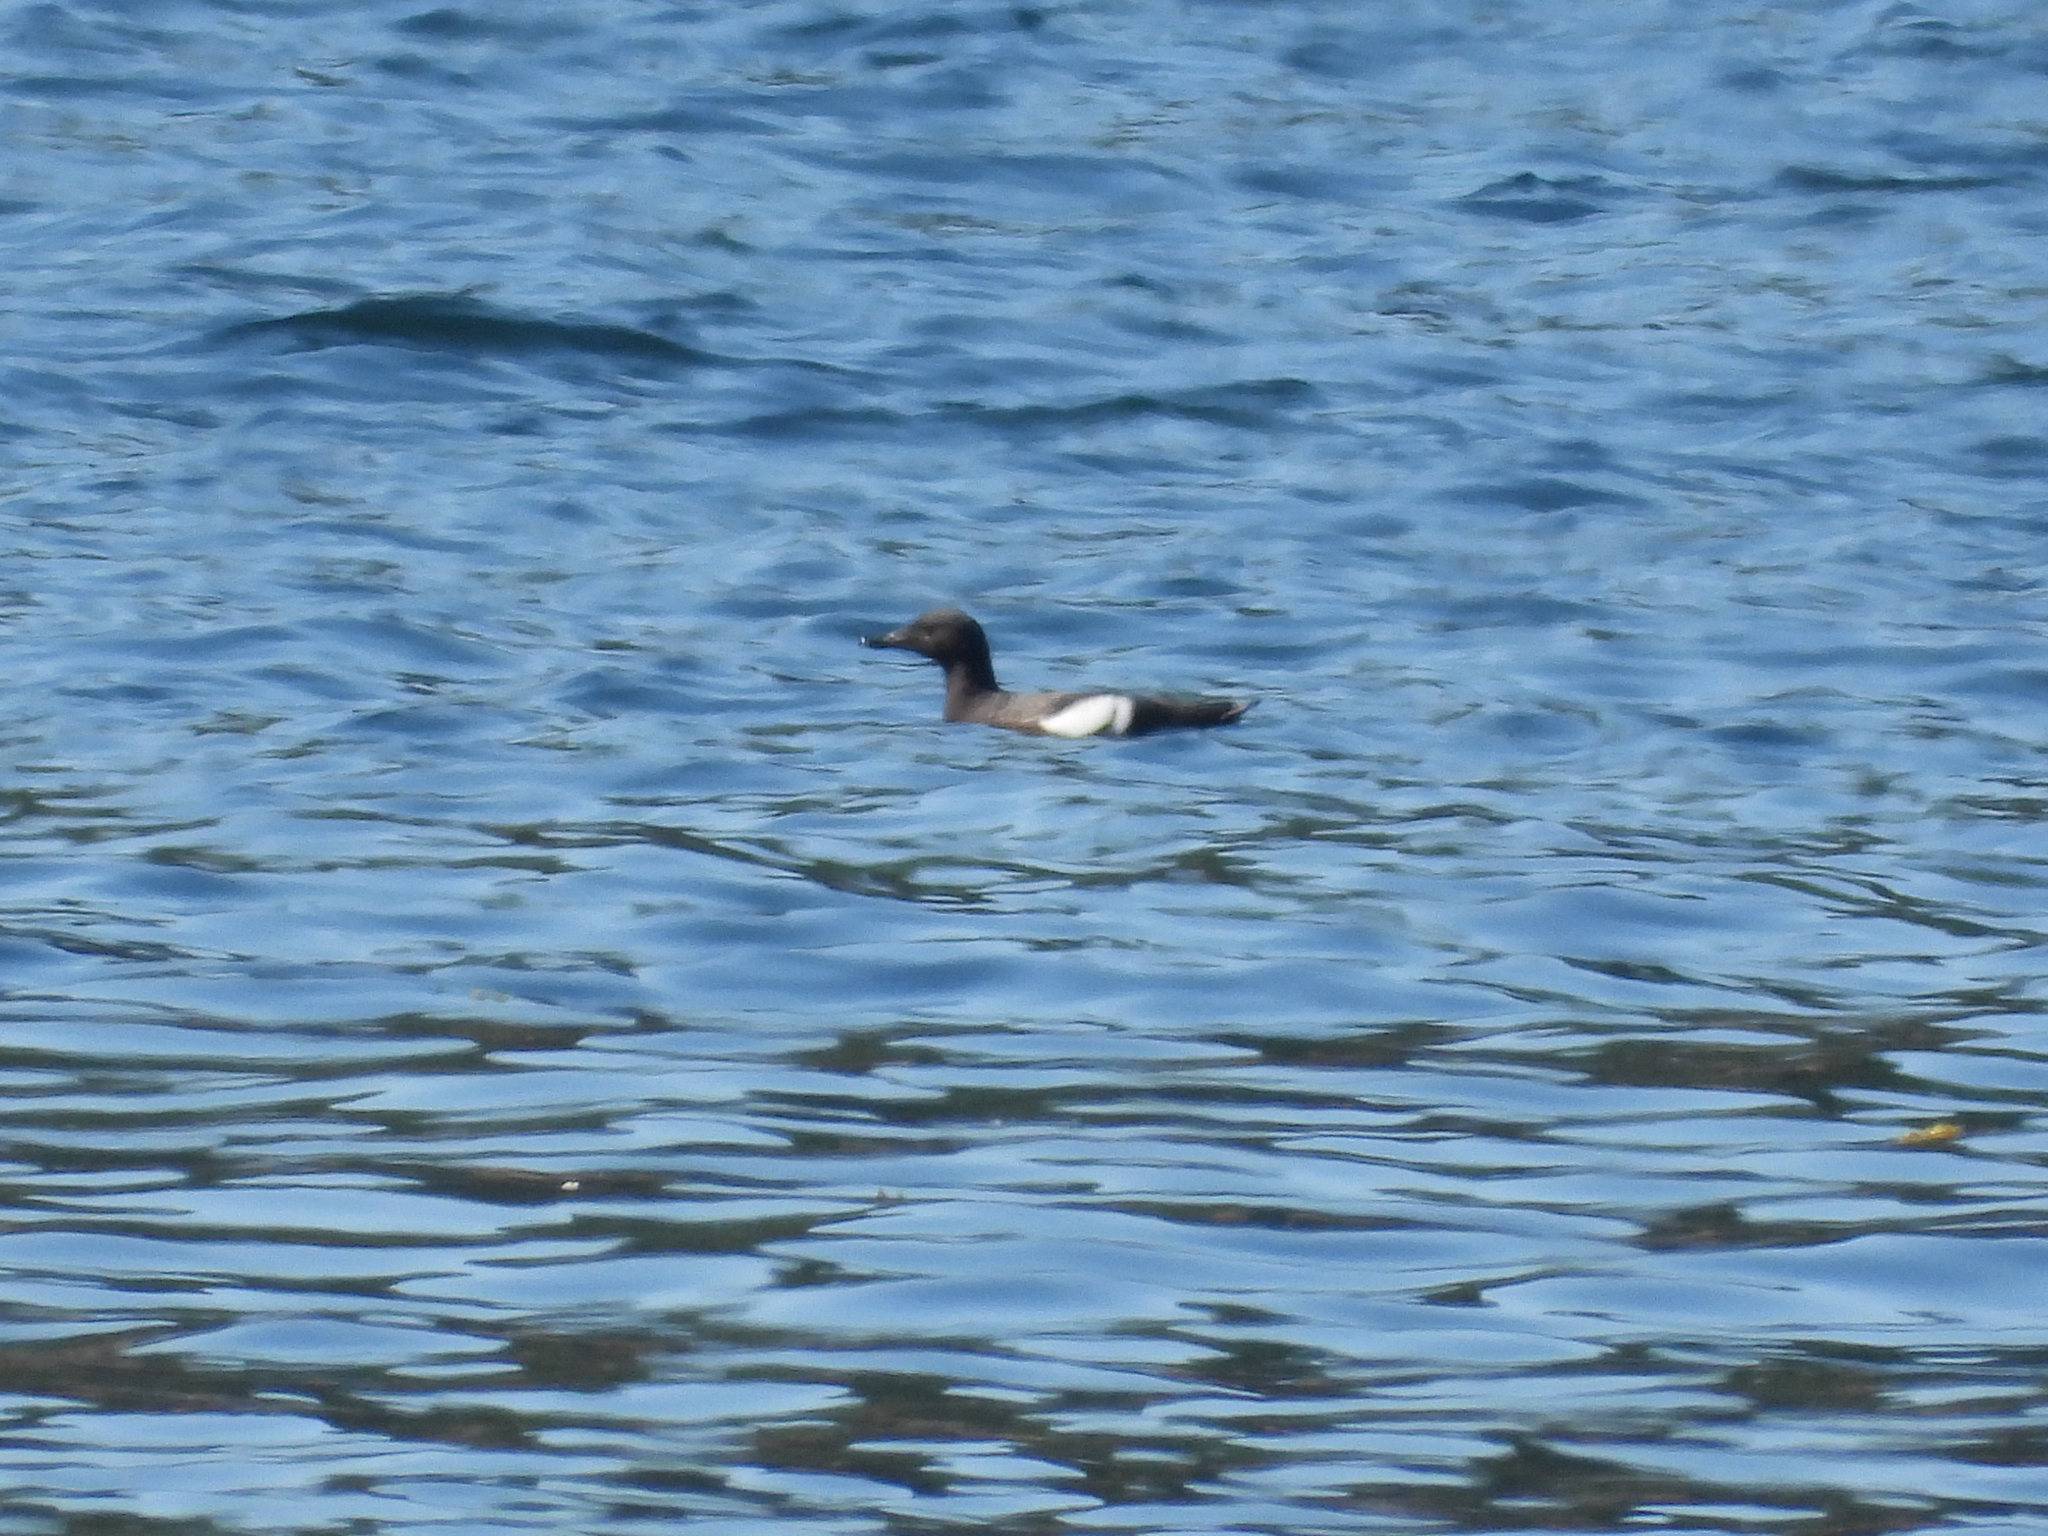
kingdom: Animalia
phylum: Chordata
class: Aves
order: Charadriiformes
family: Alcidae
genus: Cepphus
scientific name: Cepphus columba
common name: Pigeon guillemot
